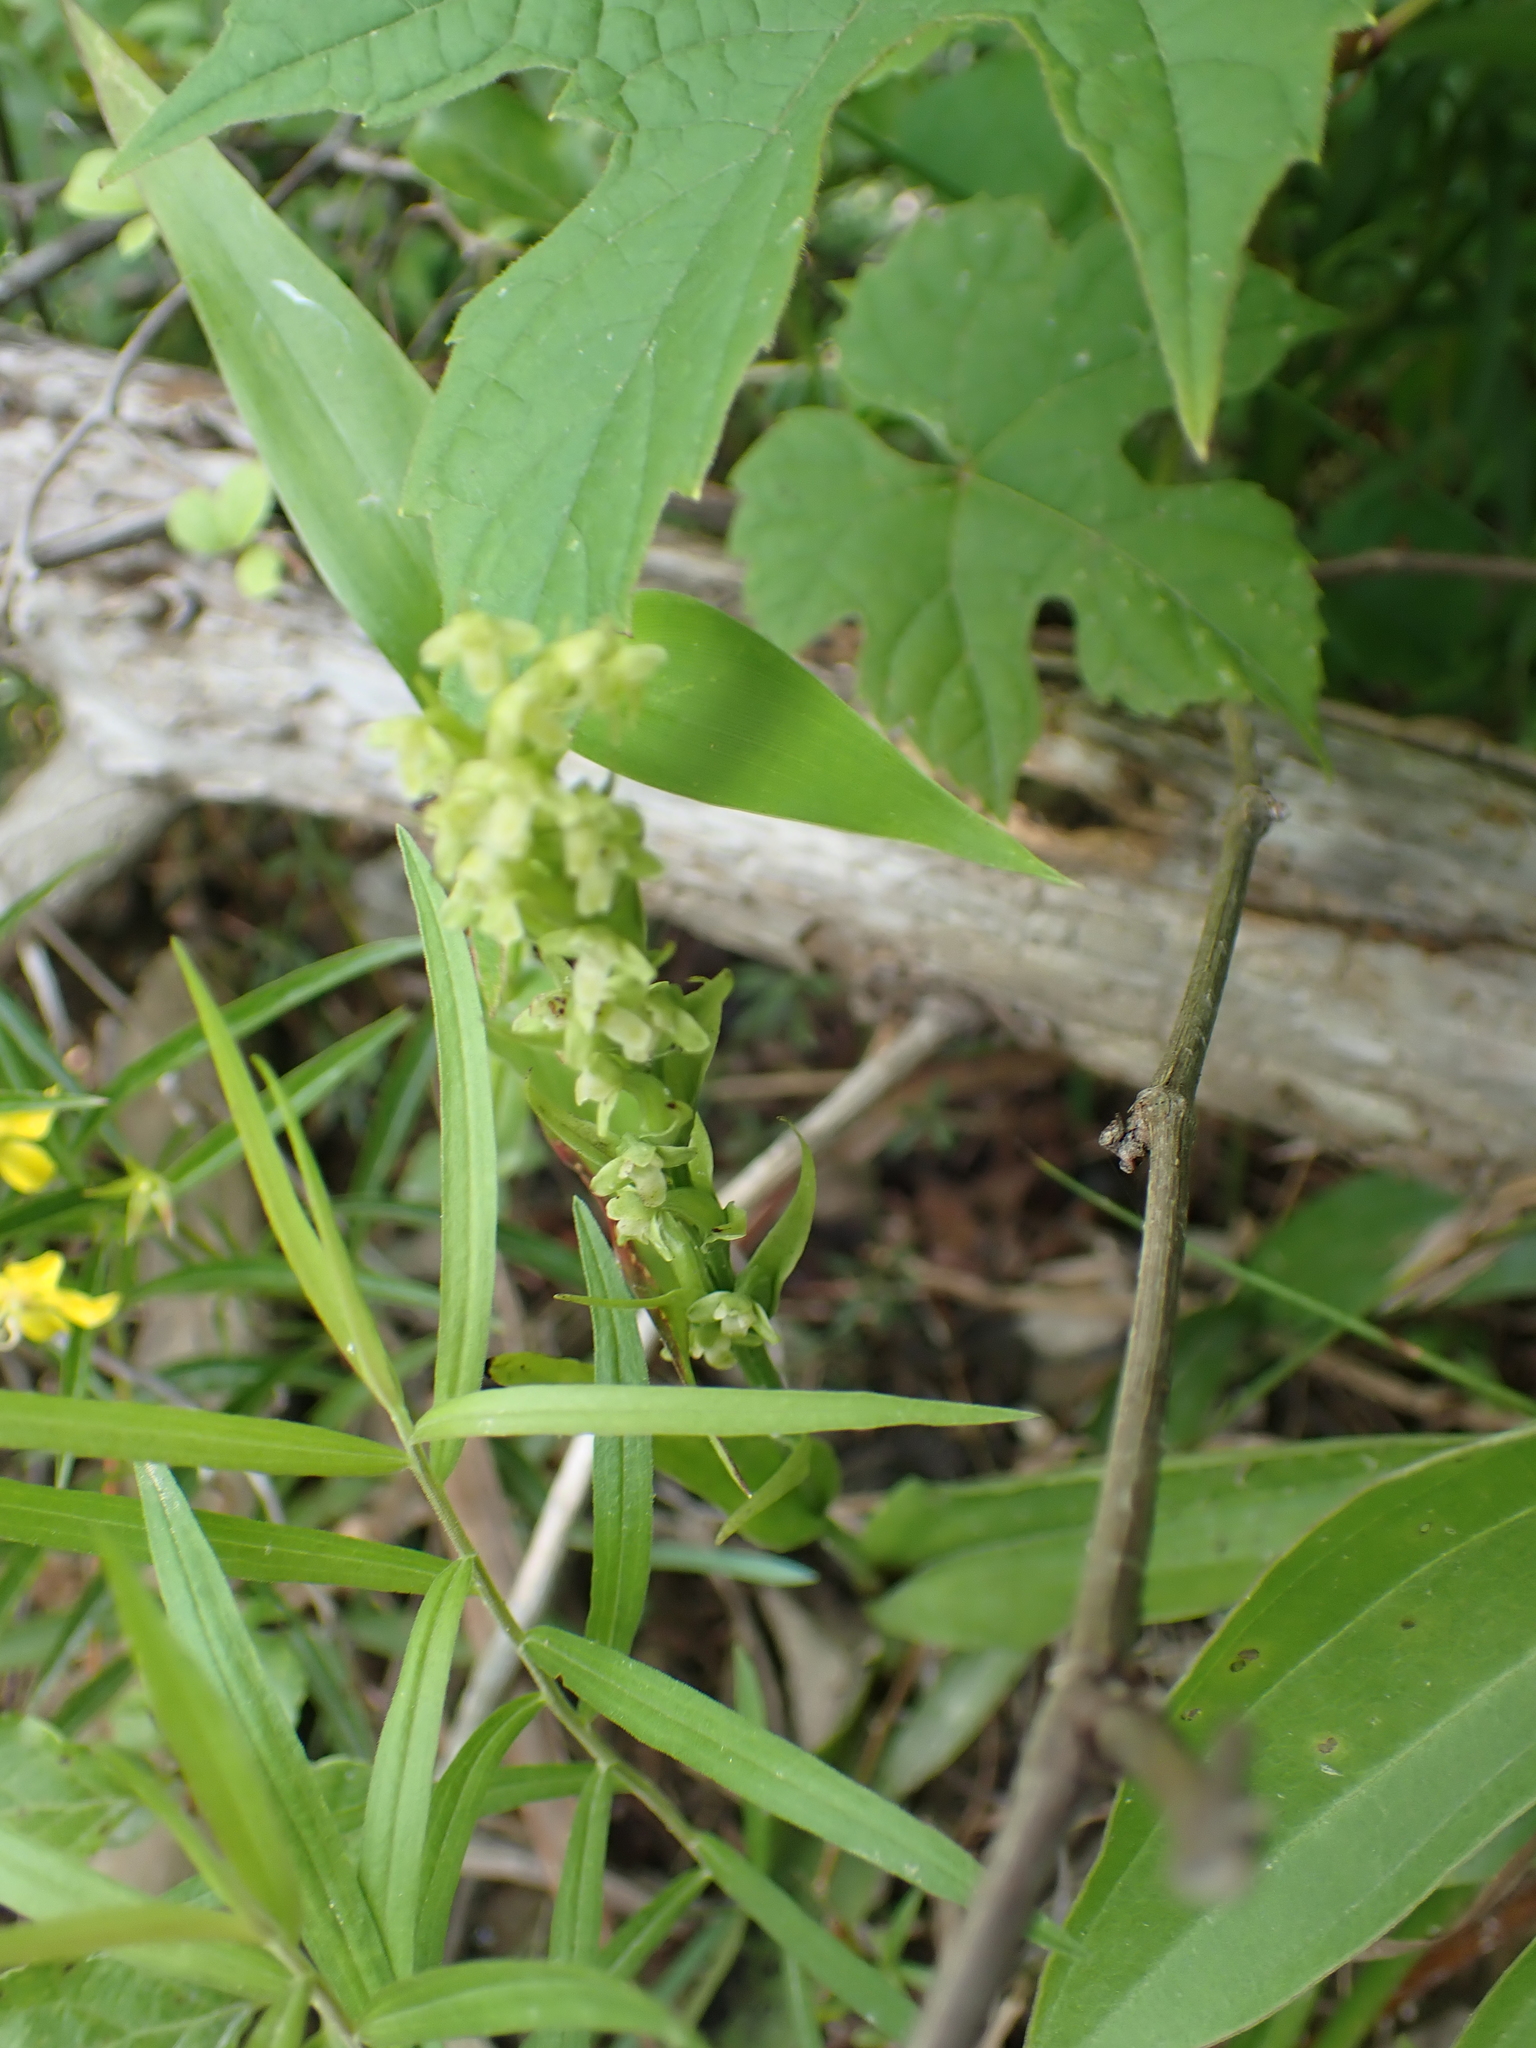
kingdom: Plantae
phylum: Tracheophyta
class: Liliopsida
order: Asparagales
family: Orchidaceae
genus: Platanthera
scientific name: Platanthera flava
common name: Gypsy-spikes
